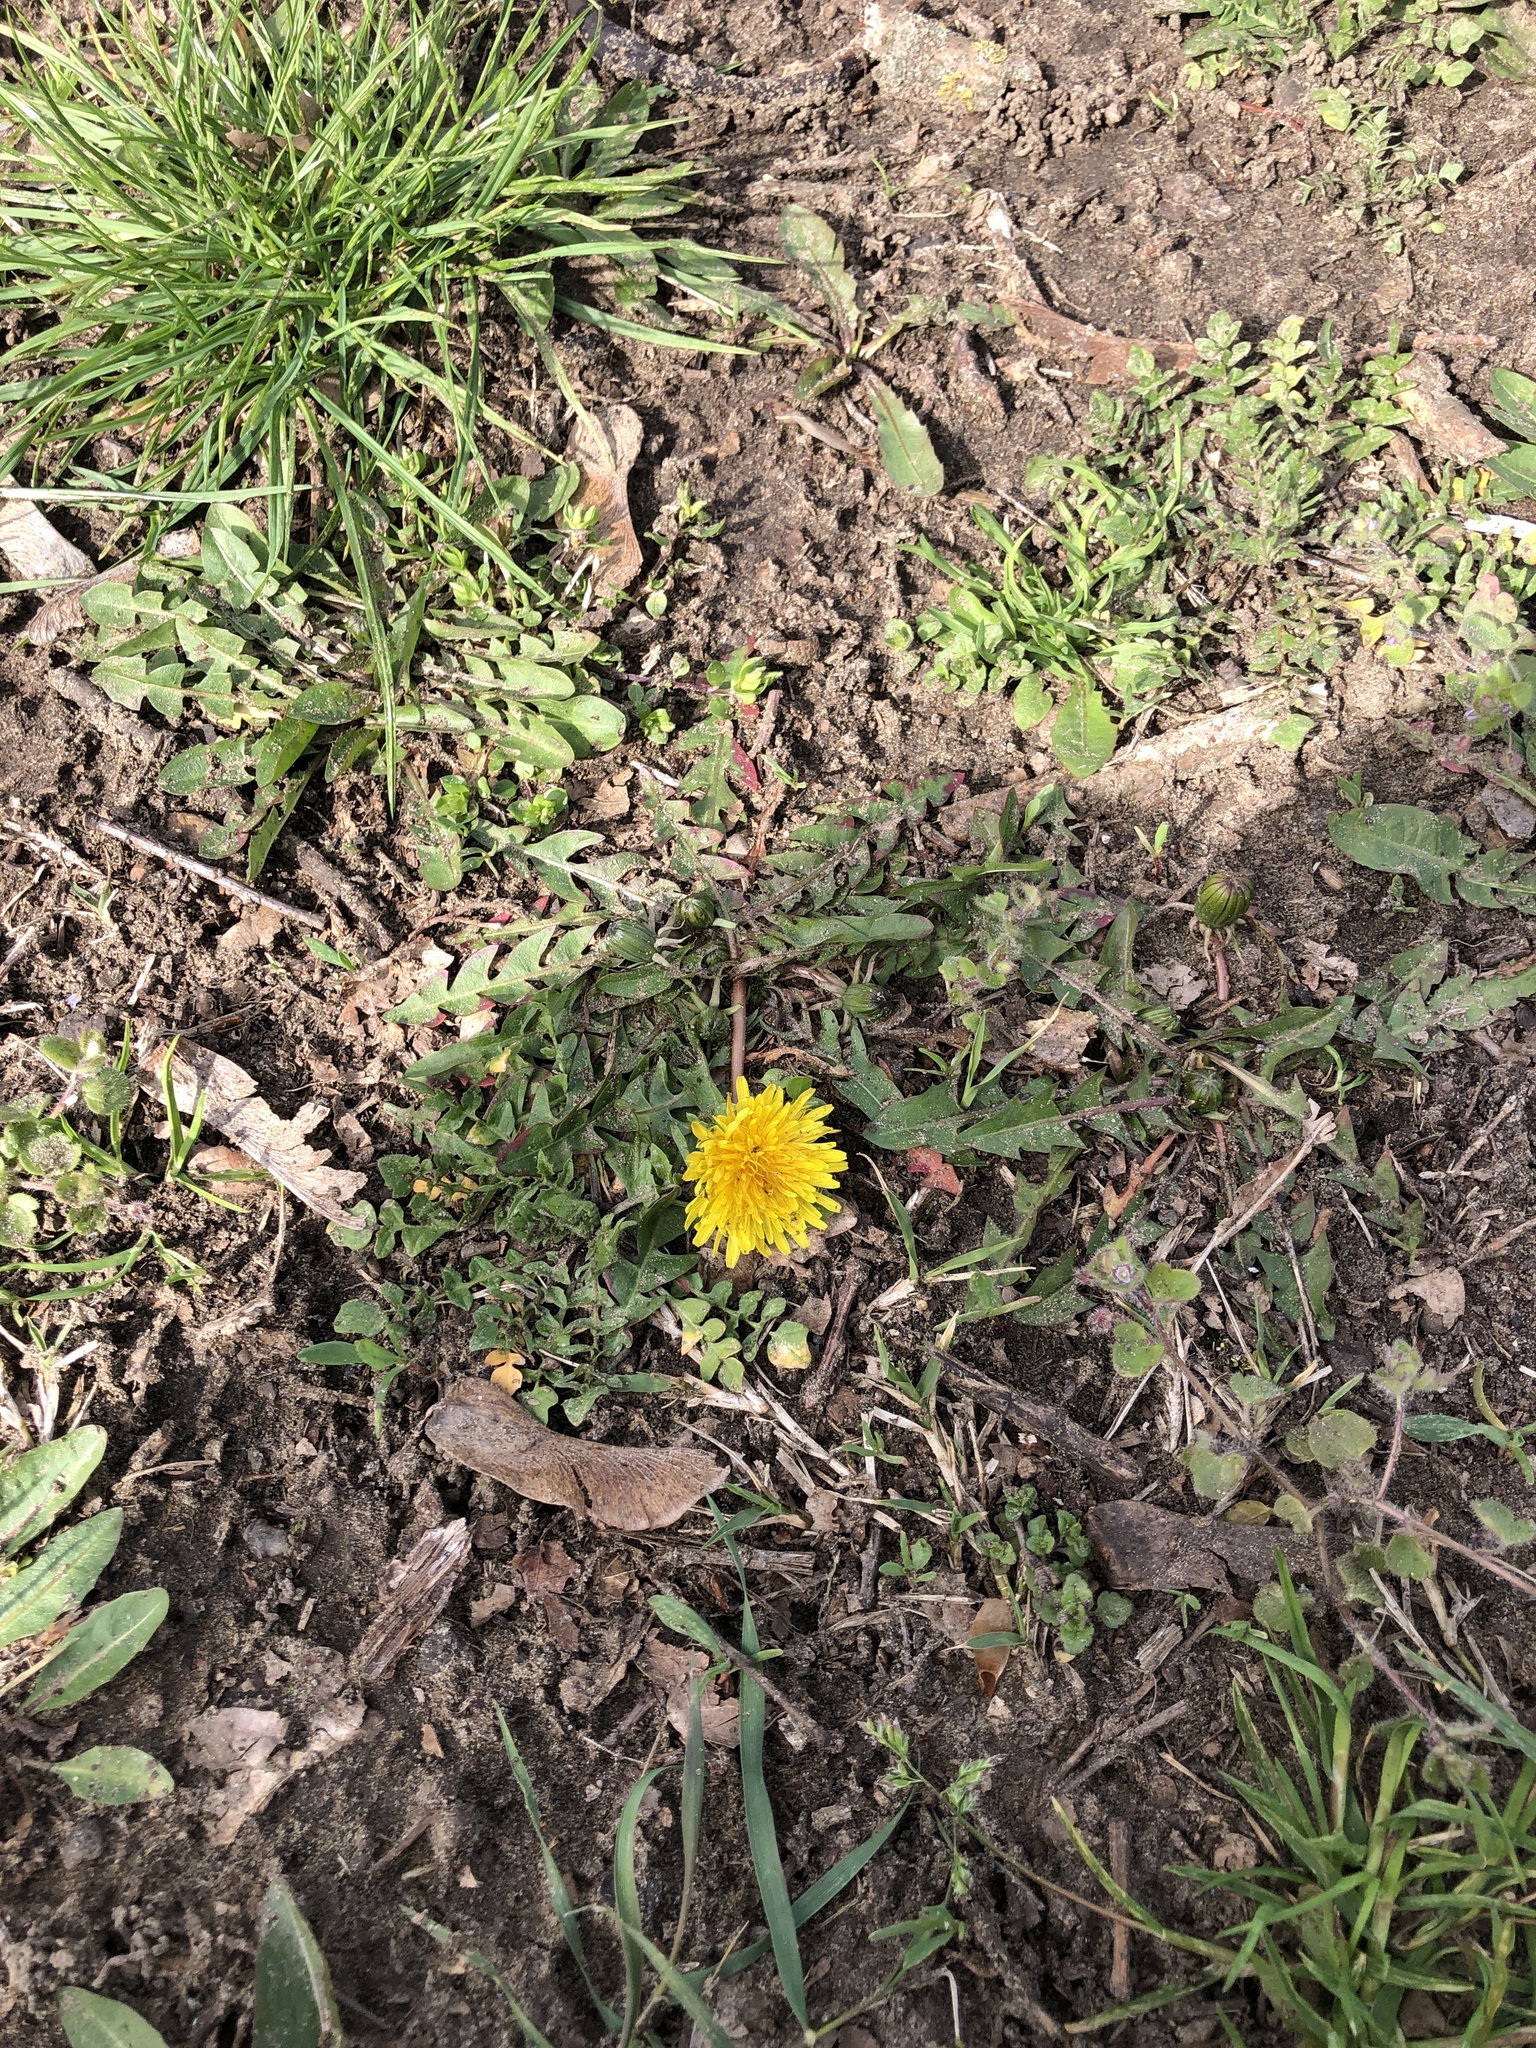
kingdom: Plantae
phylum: Tracheophyta
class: Magnoliopsida
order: Asterales
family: Asteraceae
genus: Taraxacum
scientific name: Taraxacum officinale
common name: Common dandelion
